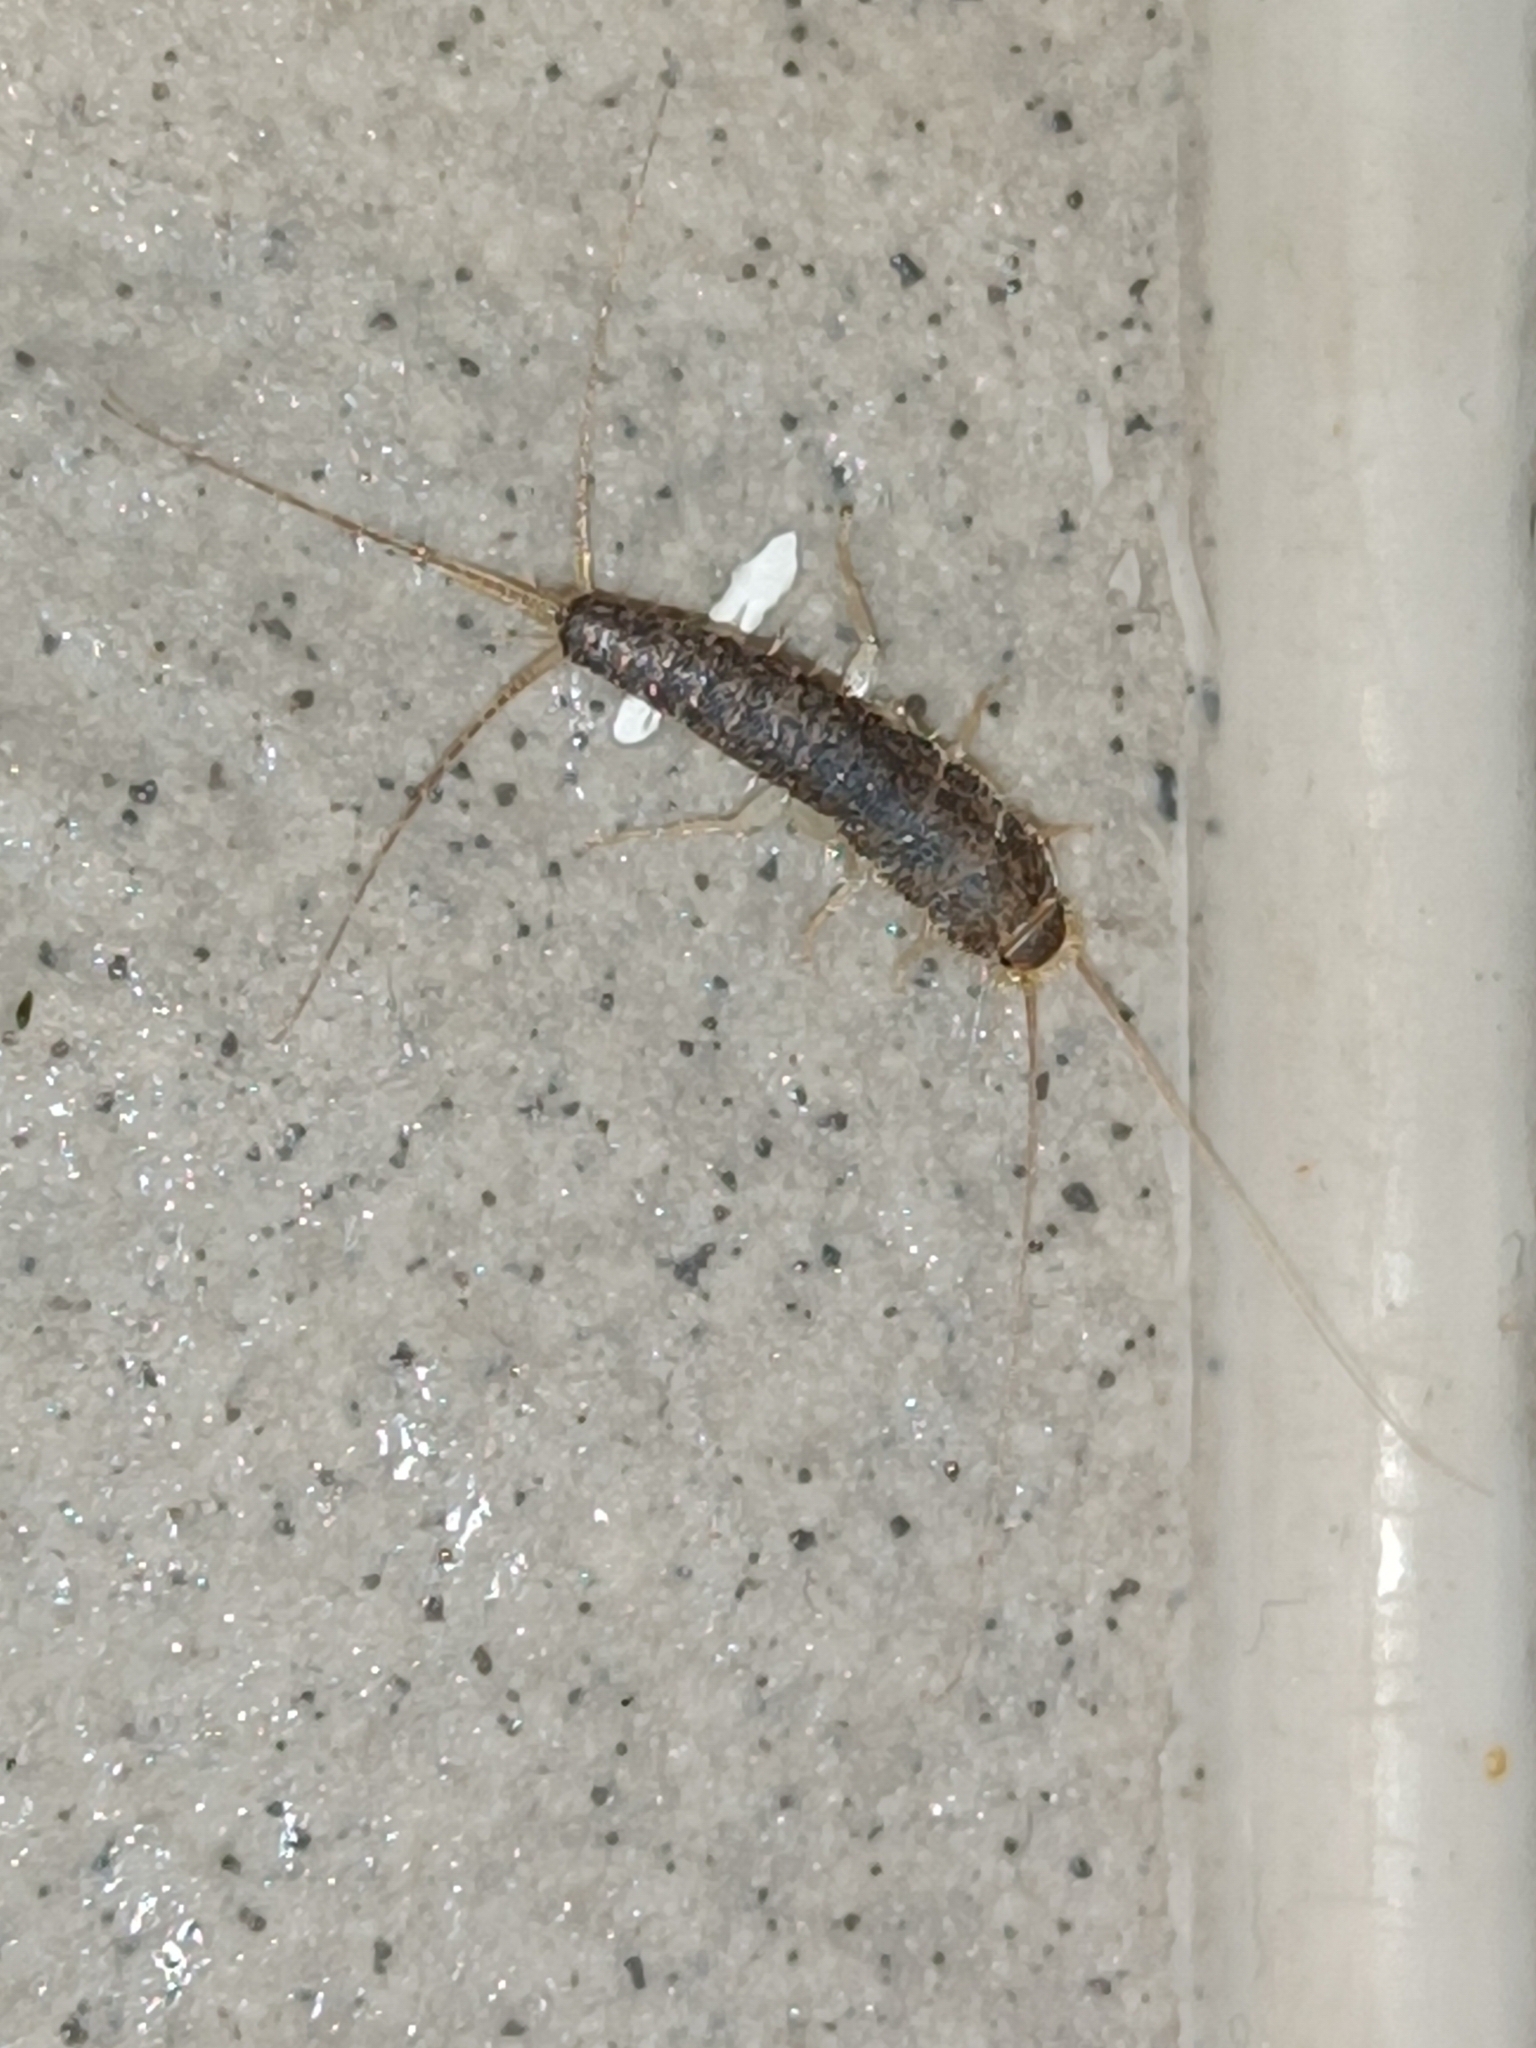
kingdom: Animalia
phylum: Arthropoda
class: Insecta
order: Zygentoma
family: Lepismatidae
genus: Ctenolepisma
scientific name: Ctenolepisma longicaudatum
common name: Silverfish
